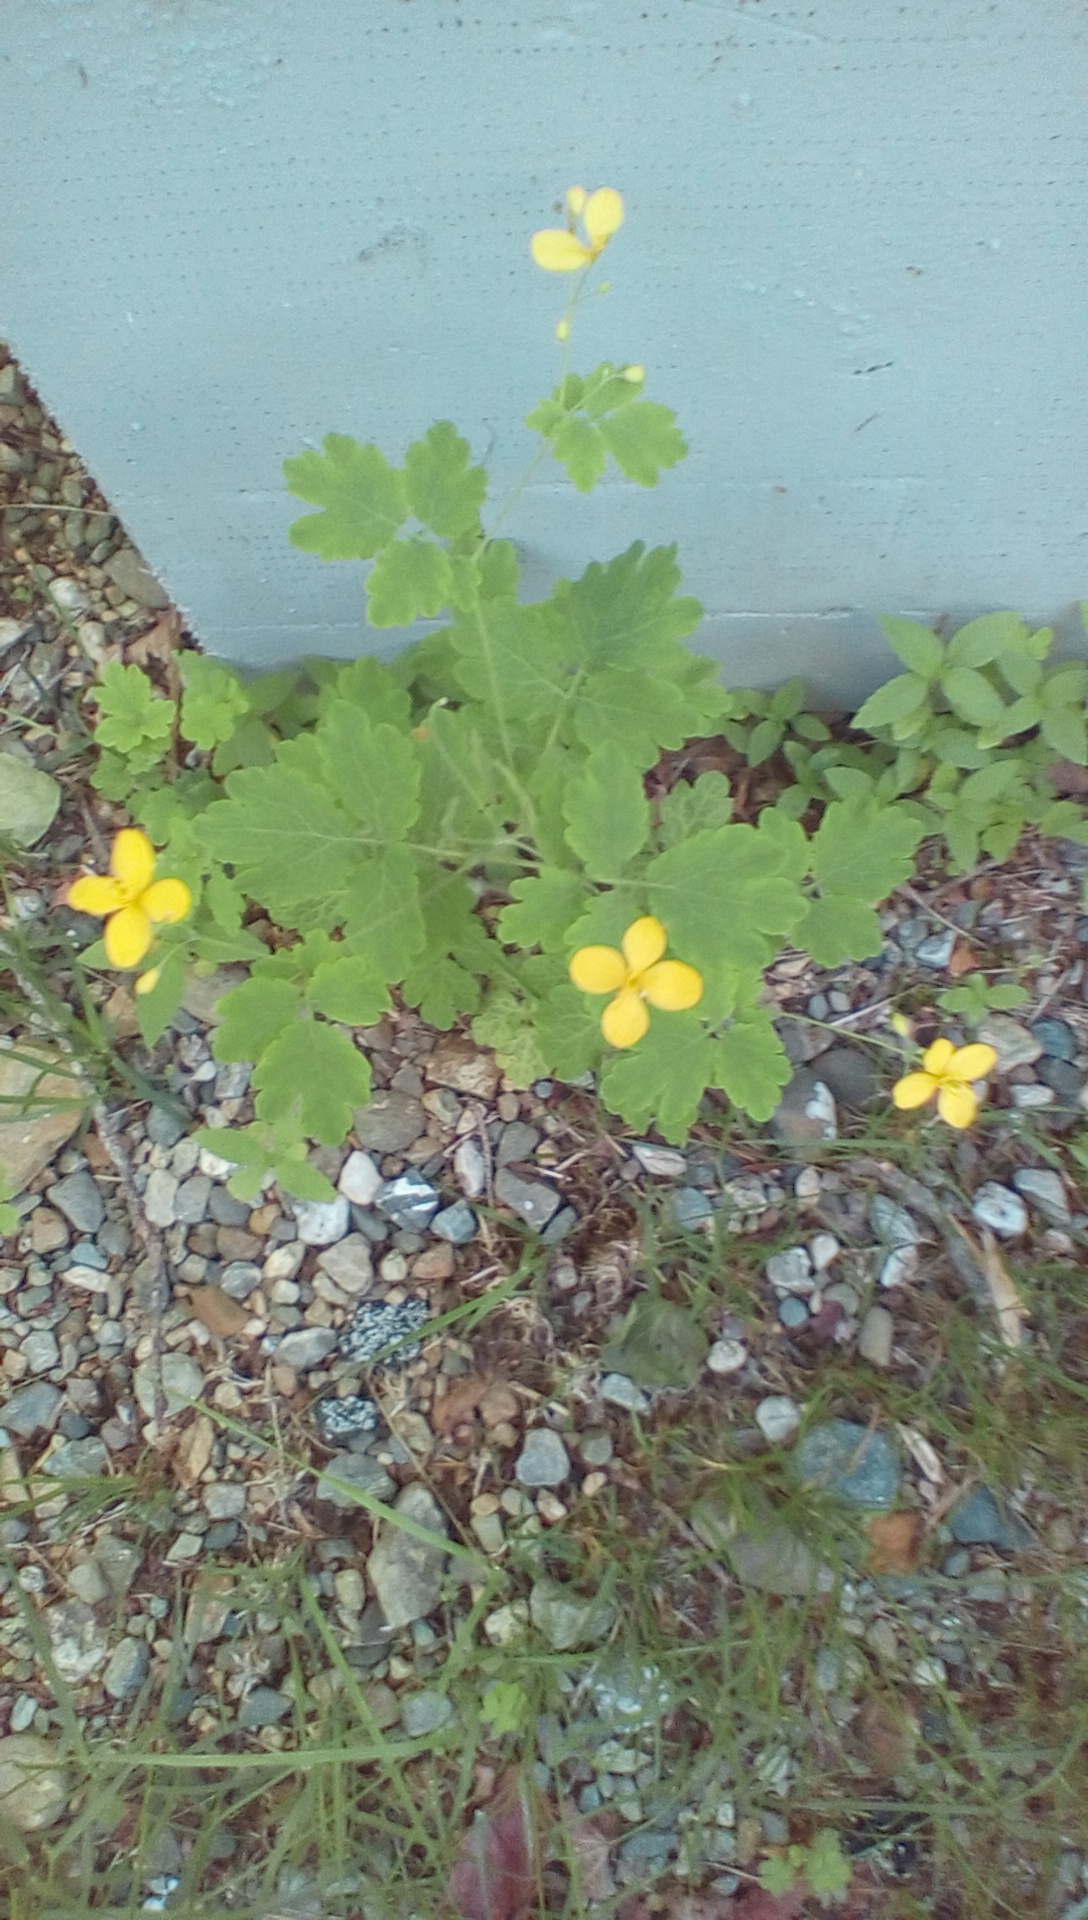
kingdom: Plantae
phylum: Tracheophyta
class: Magnoliopsida
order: Ranunculales
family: Papaveraceae
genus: Chelidonium
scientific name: Chelidonium majus
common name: Greater celandine
